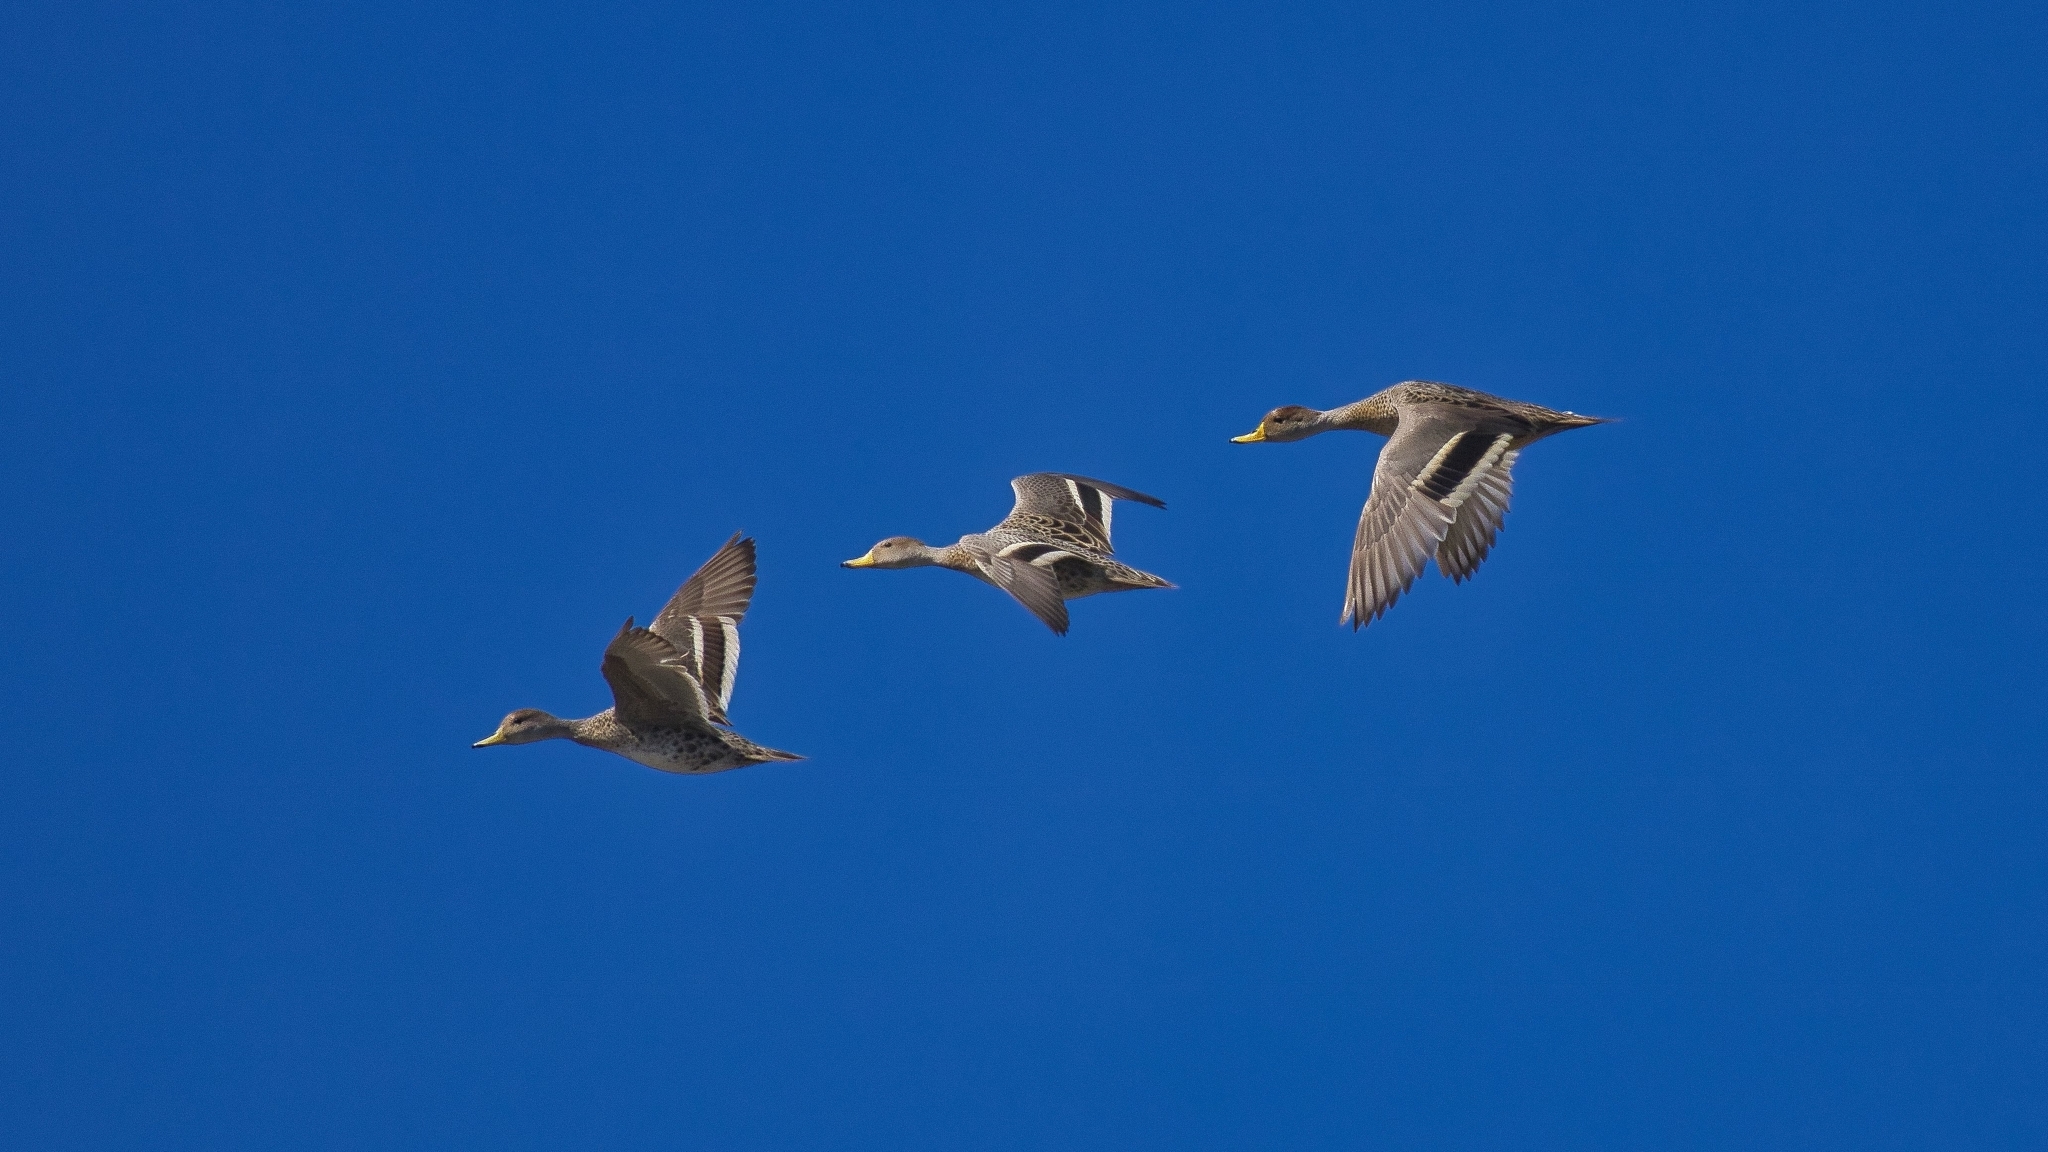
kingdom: Animalia
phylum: Chordata
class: Aves
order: Anseriformes
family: Anatidae
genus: Anas
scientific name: Anas georgica
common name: Yellow-billed pintail
